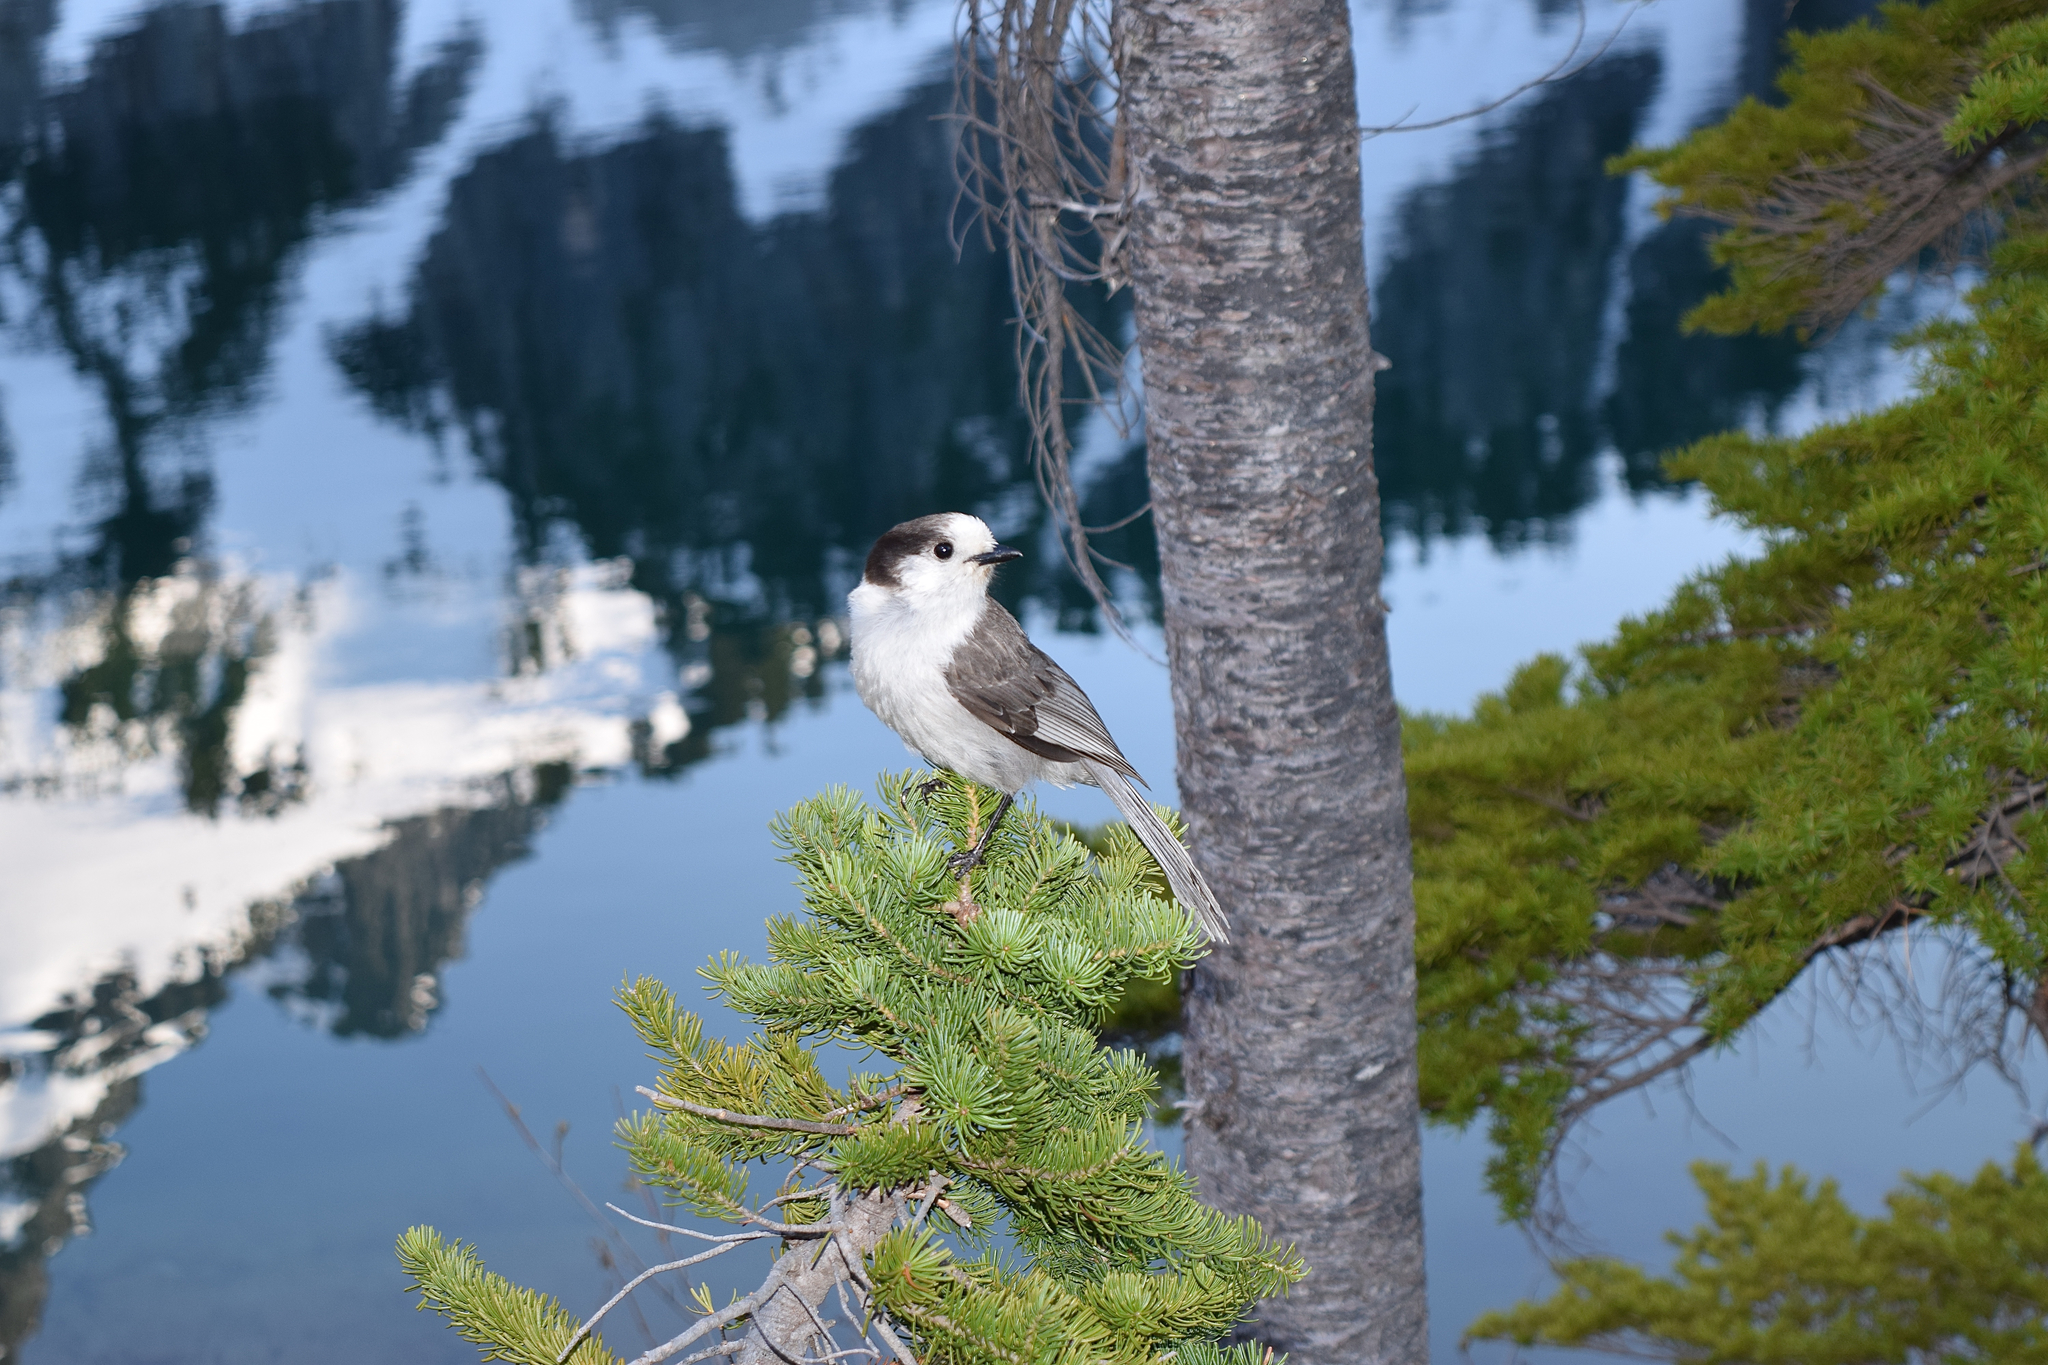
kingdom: Animalia
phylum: Chordata
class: Aves
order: Passeriformes
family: Corvidae
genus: Perisoreus
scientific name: Perisoreus canadensis
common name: Gray jay
